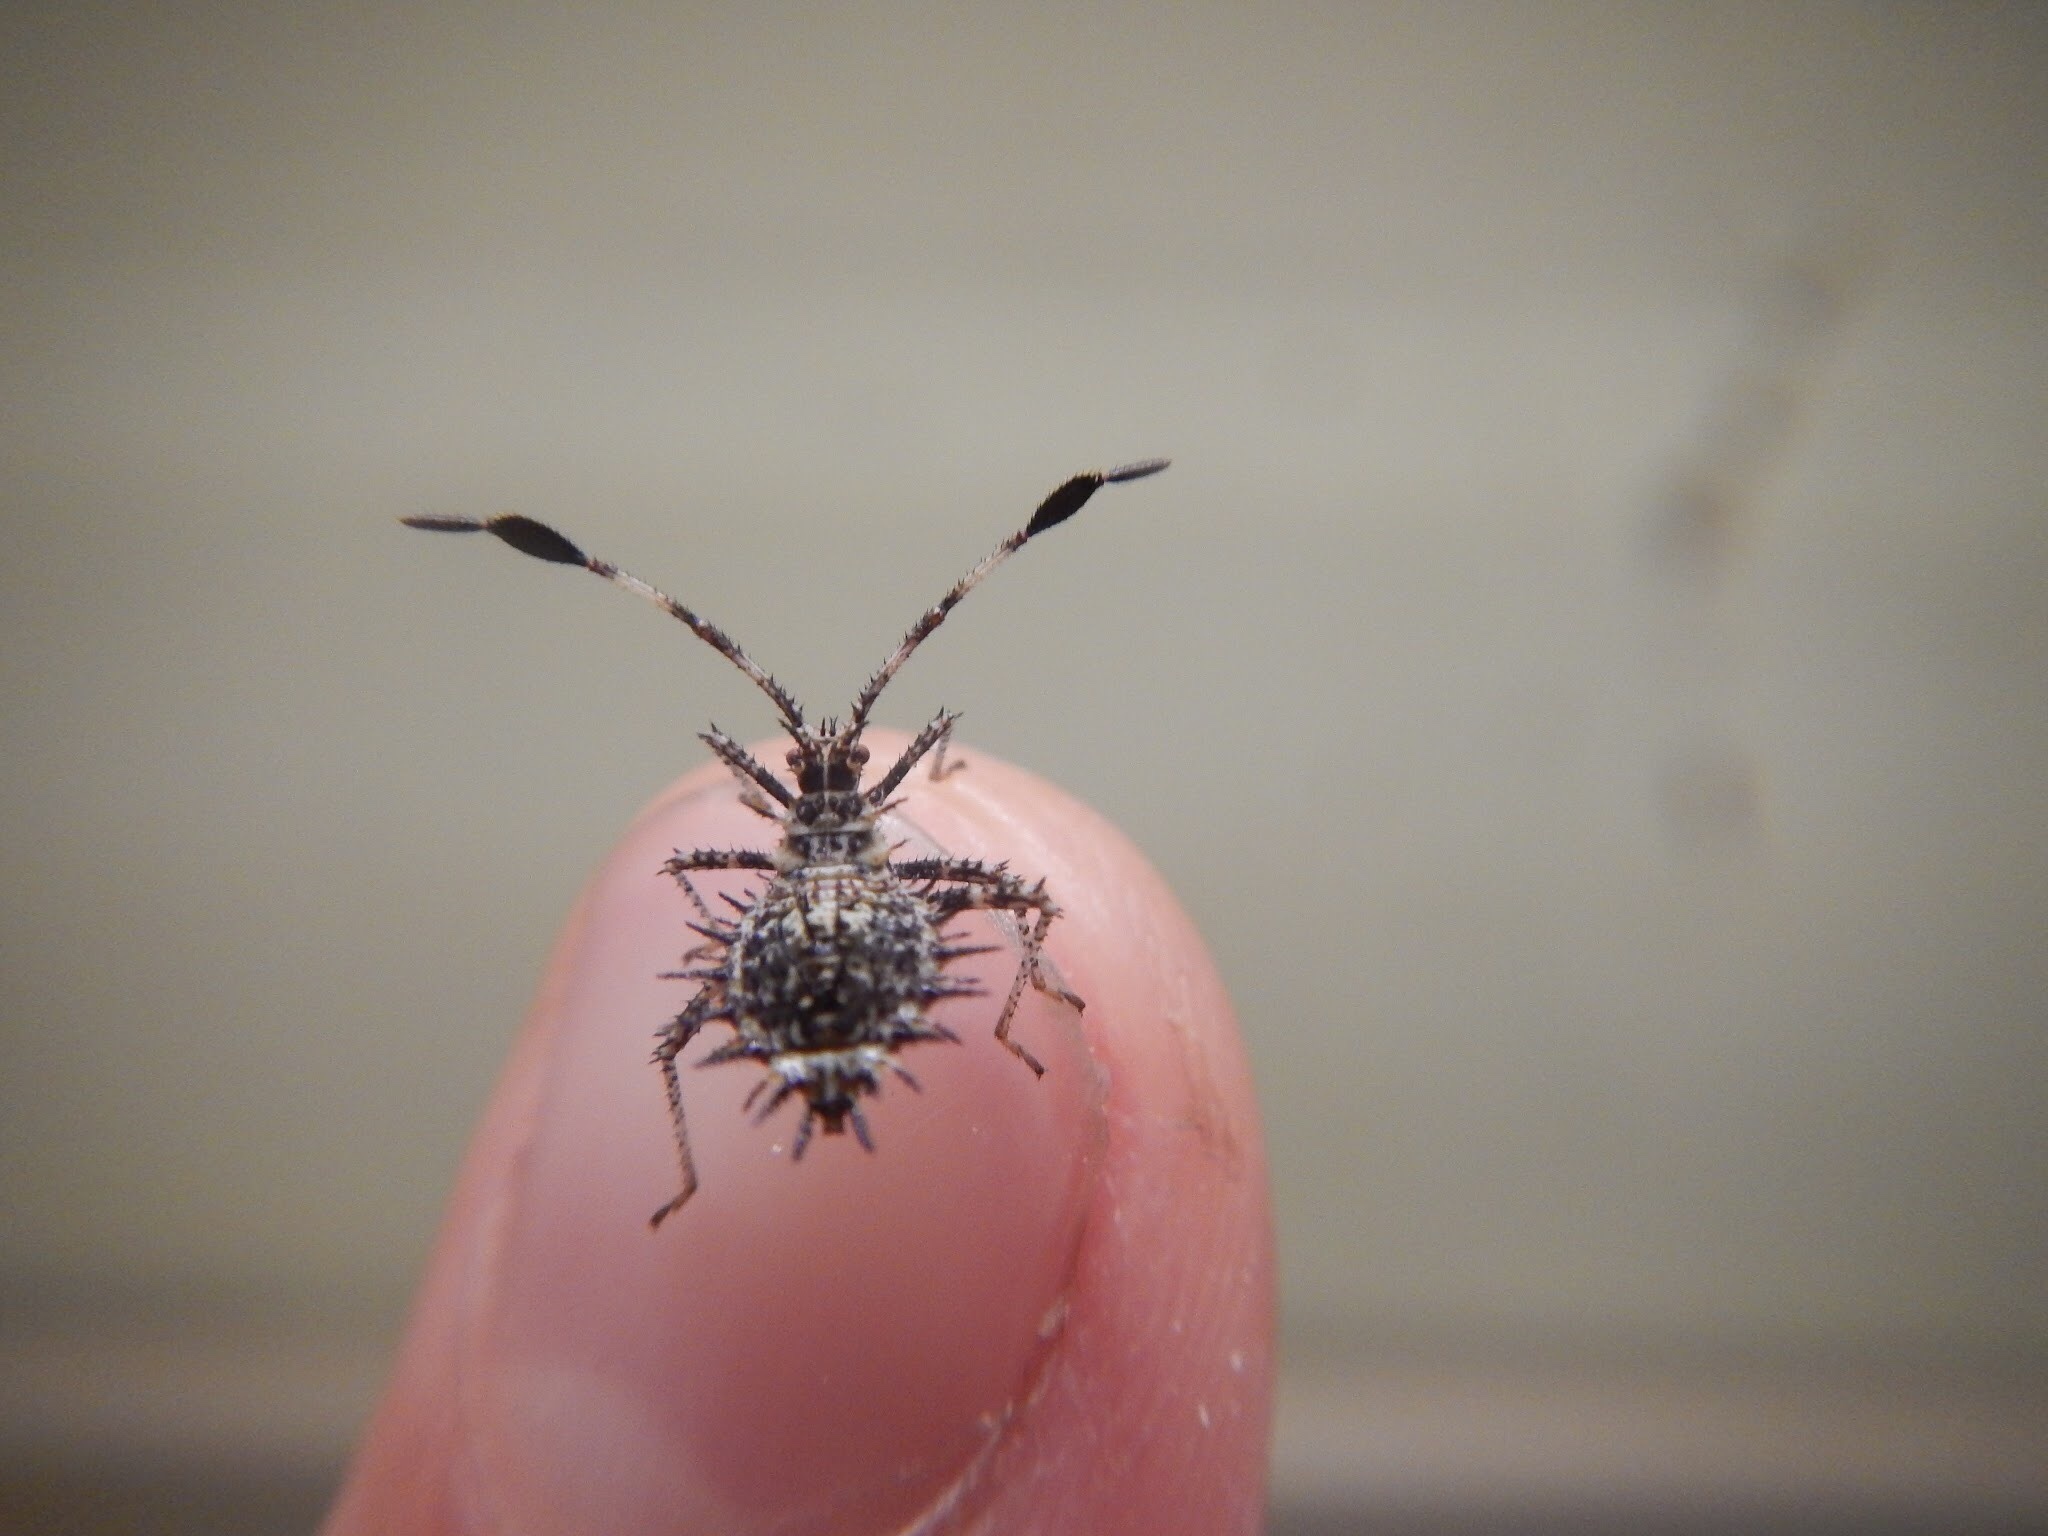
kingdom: Animalia
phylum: Arthropoda
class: Insecta
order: Hemiptera
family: Coreidae
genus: Euthochtha
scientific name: Euthochtha galeator
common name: Helmeted squash bug
